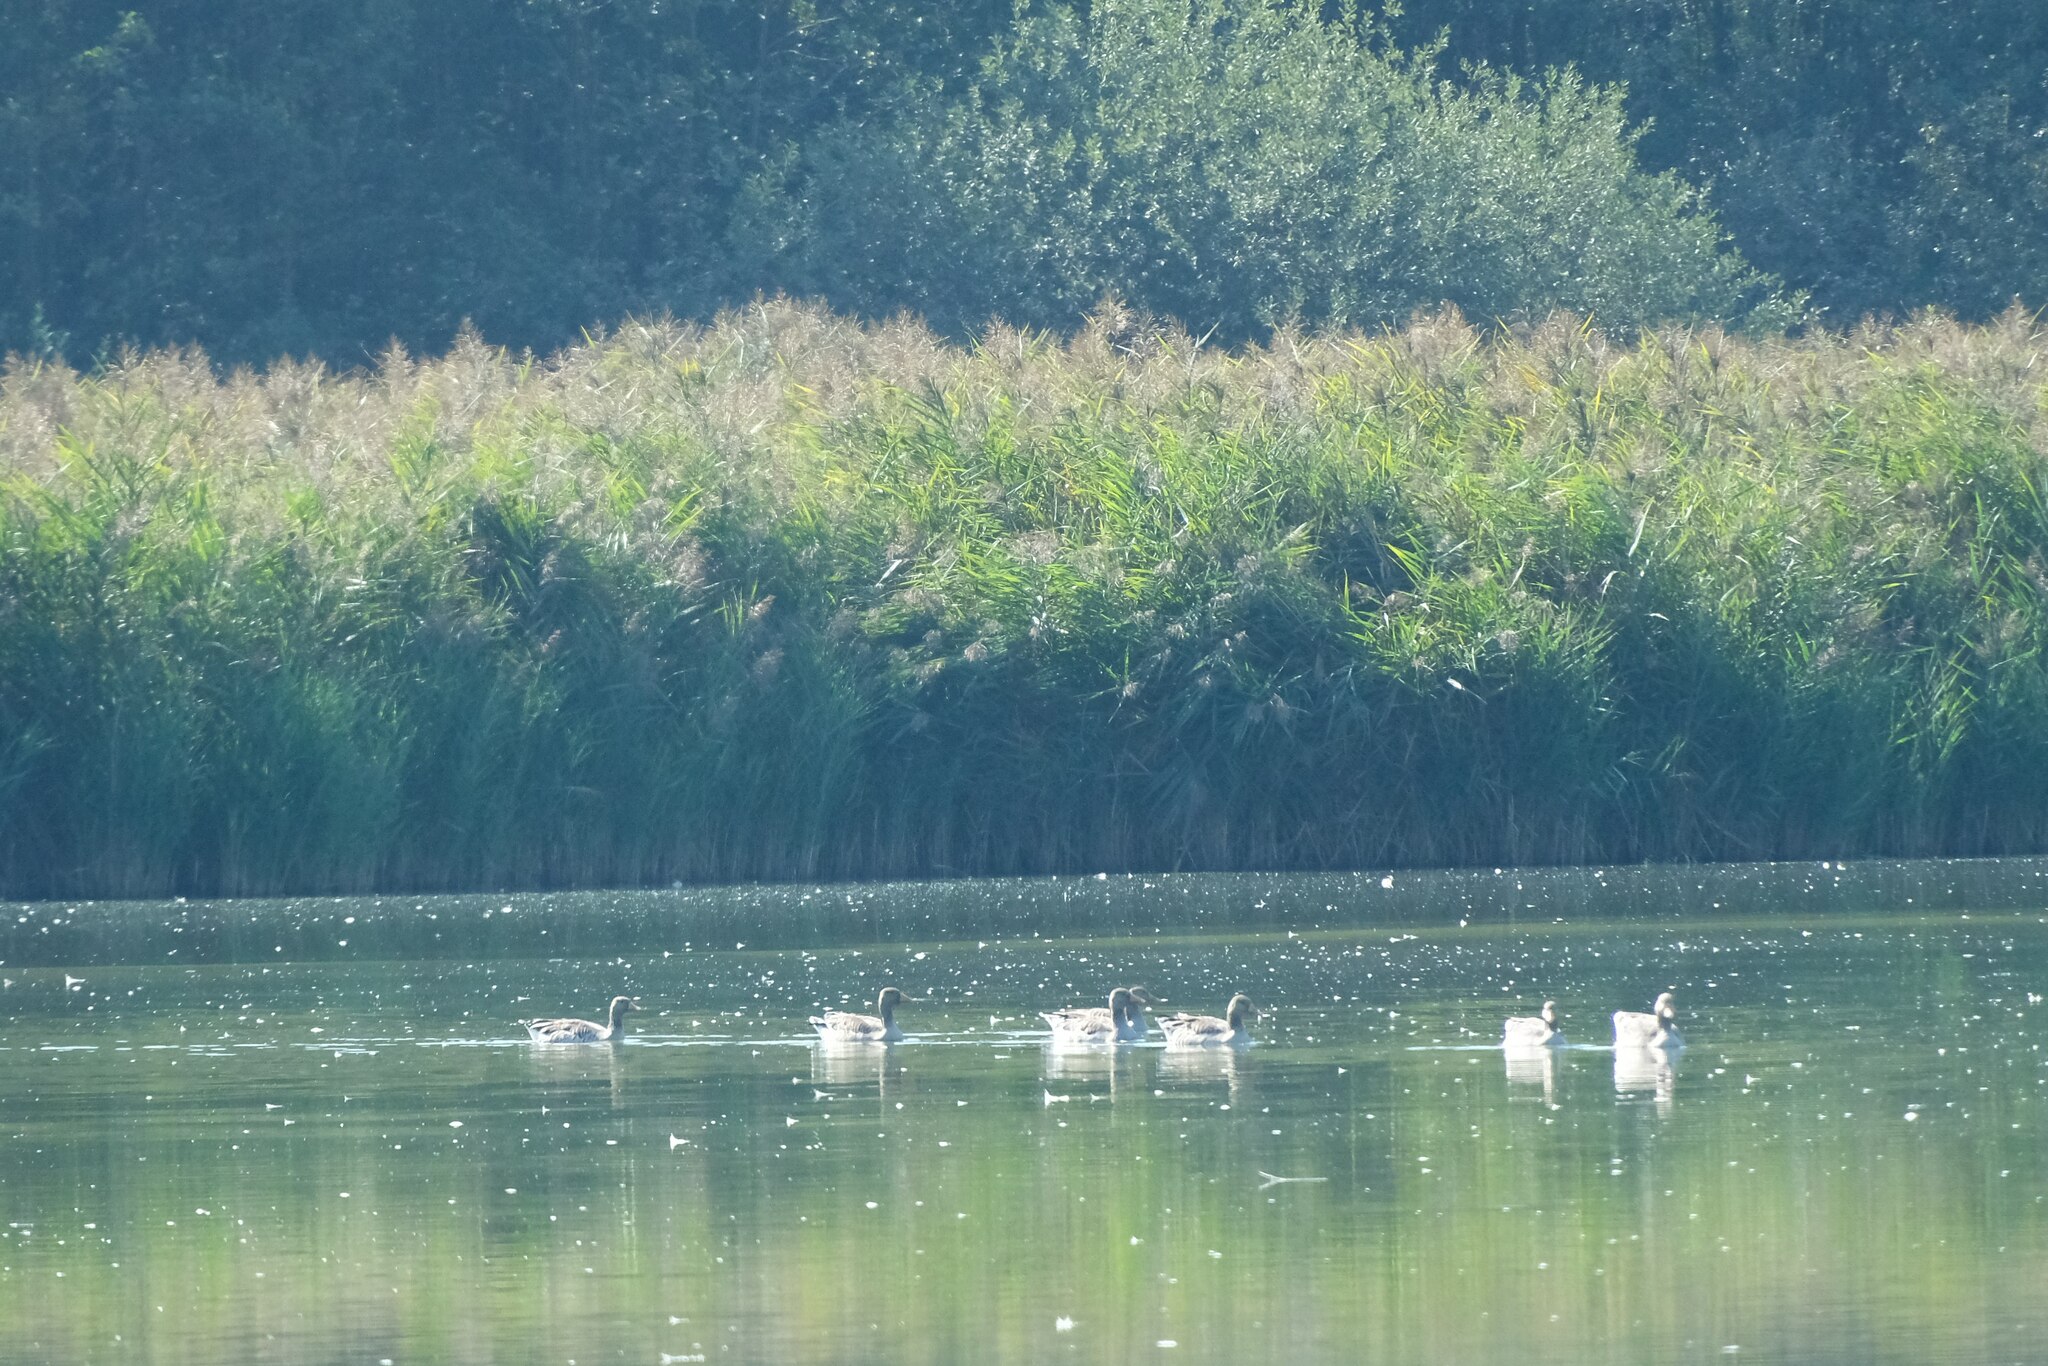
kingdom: Animalia
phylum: Chordata
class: Aves
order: Anseriformes
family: Anatidae
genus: Anser
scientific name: Anser anser
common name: Greylag goose
